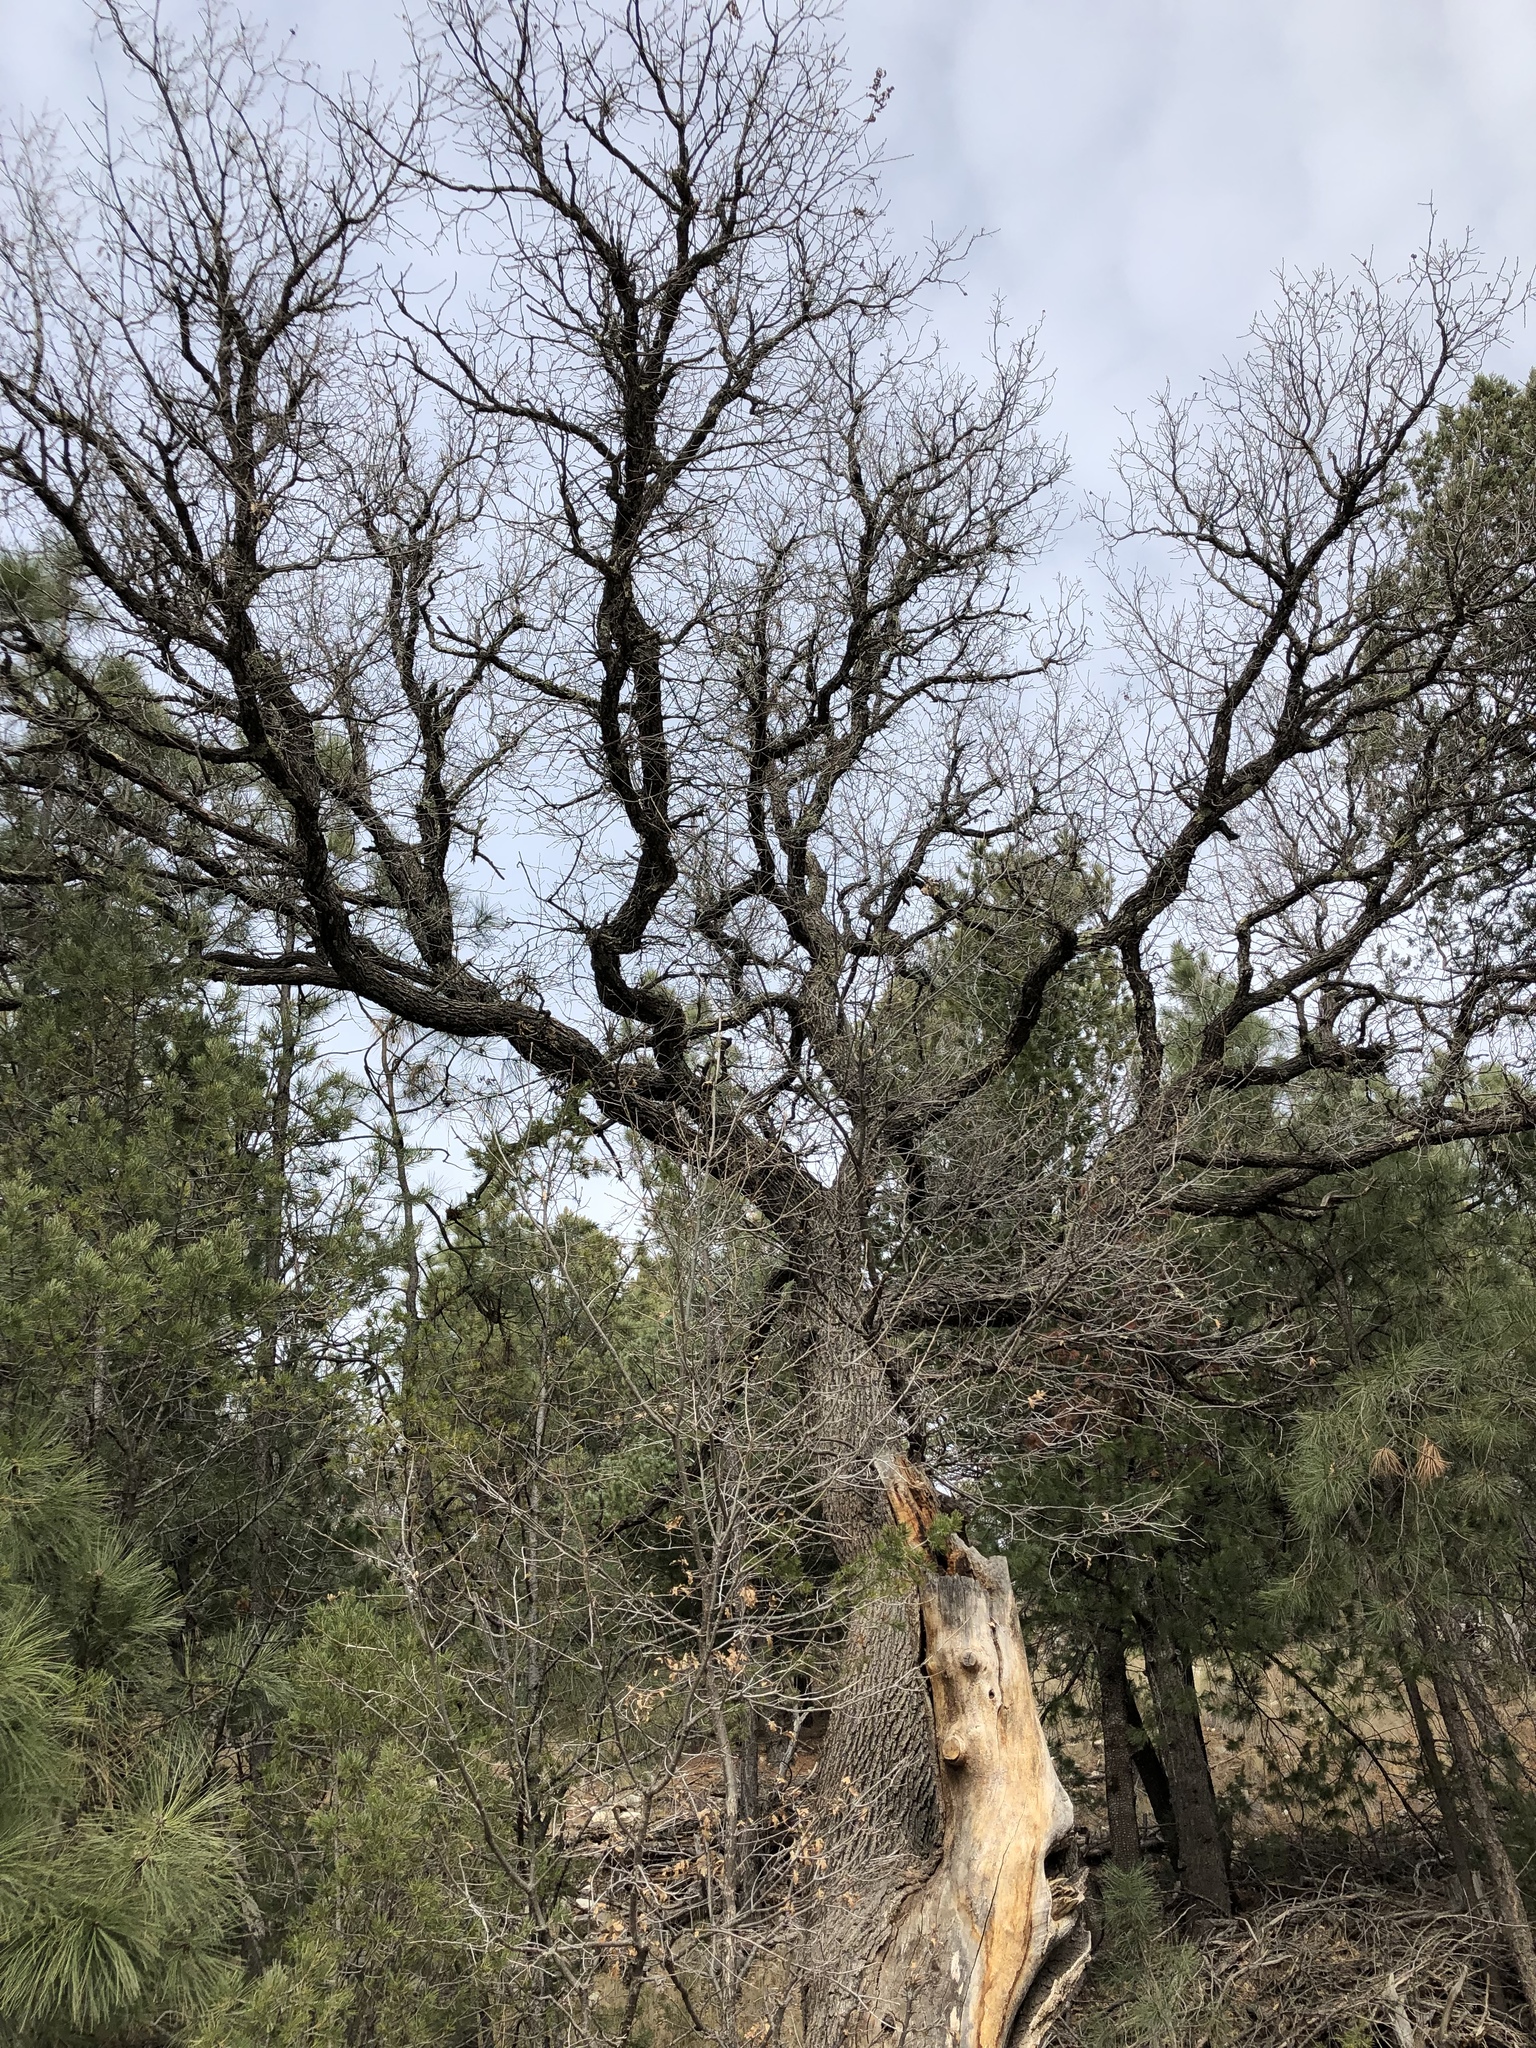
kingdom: Plantae
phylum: Tracheophyta
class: Magnoliopsida
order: Fagales
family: Fagaceae
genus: Quercus
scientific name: Quercus gambelii
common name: Gambel oak
